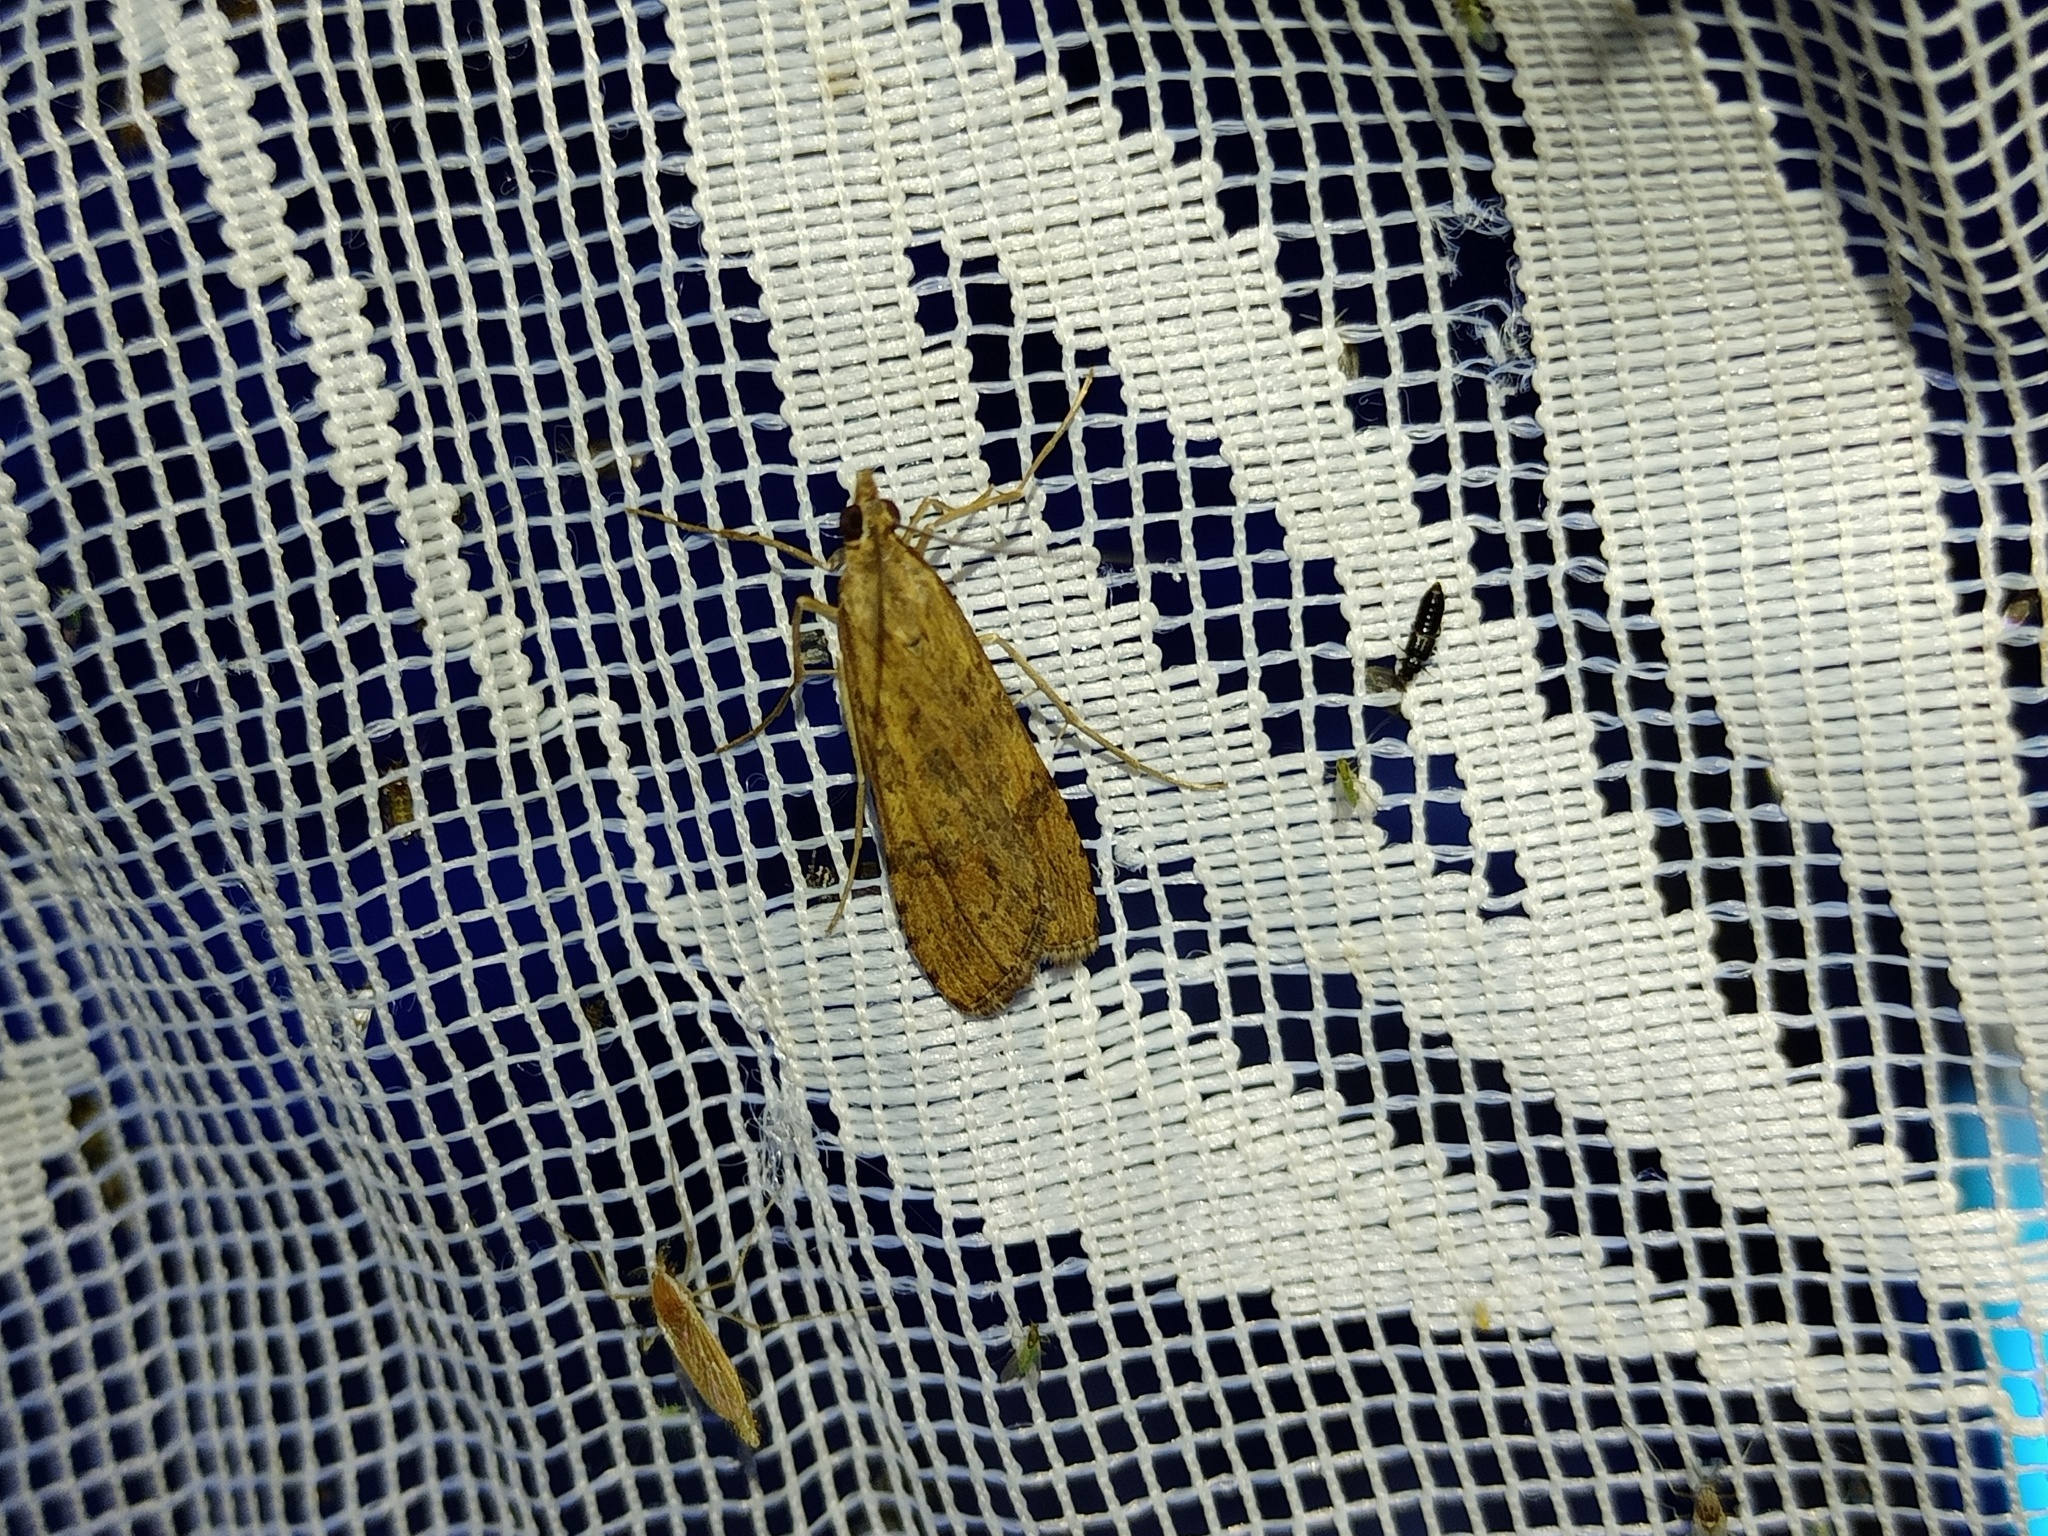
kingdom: Animalia
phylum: Arthropoda
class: Insecta
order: Lepidoptera
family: Crambidae
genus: Nomophila
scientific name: Nomophila noctuella
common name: Rush veneer
